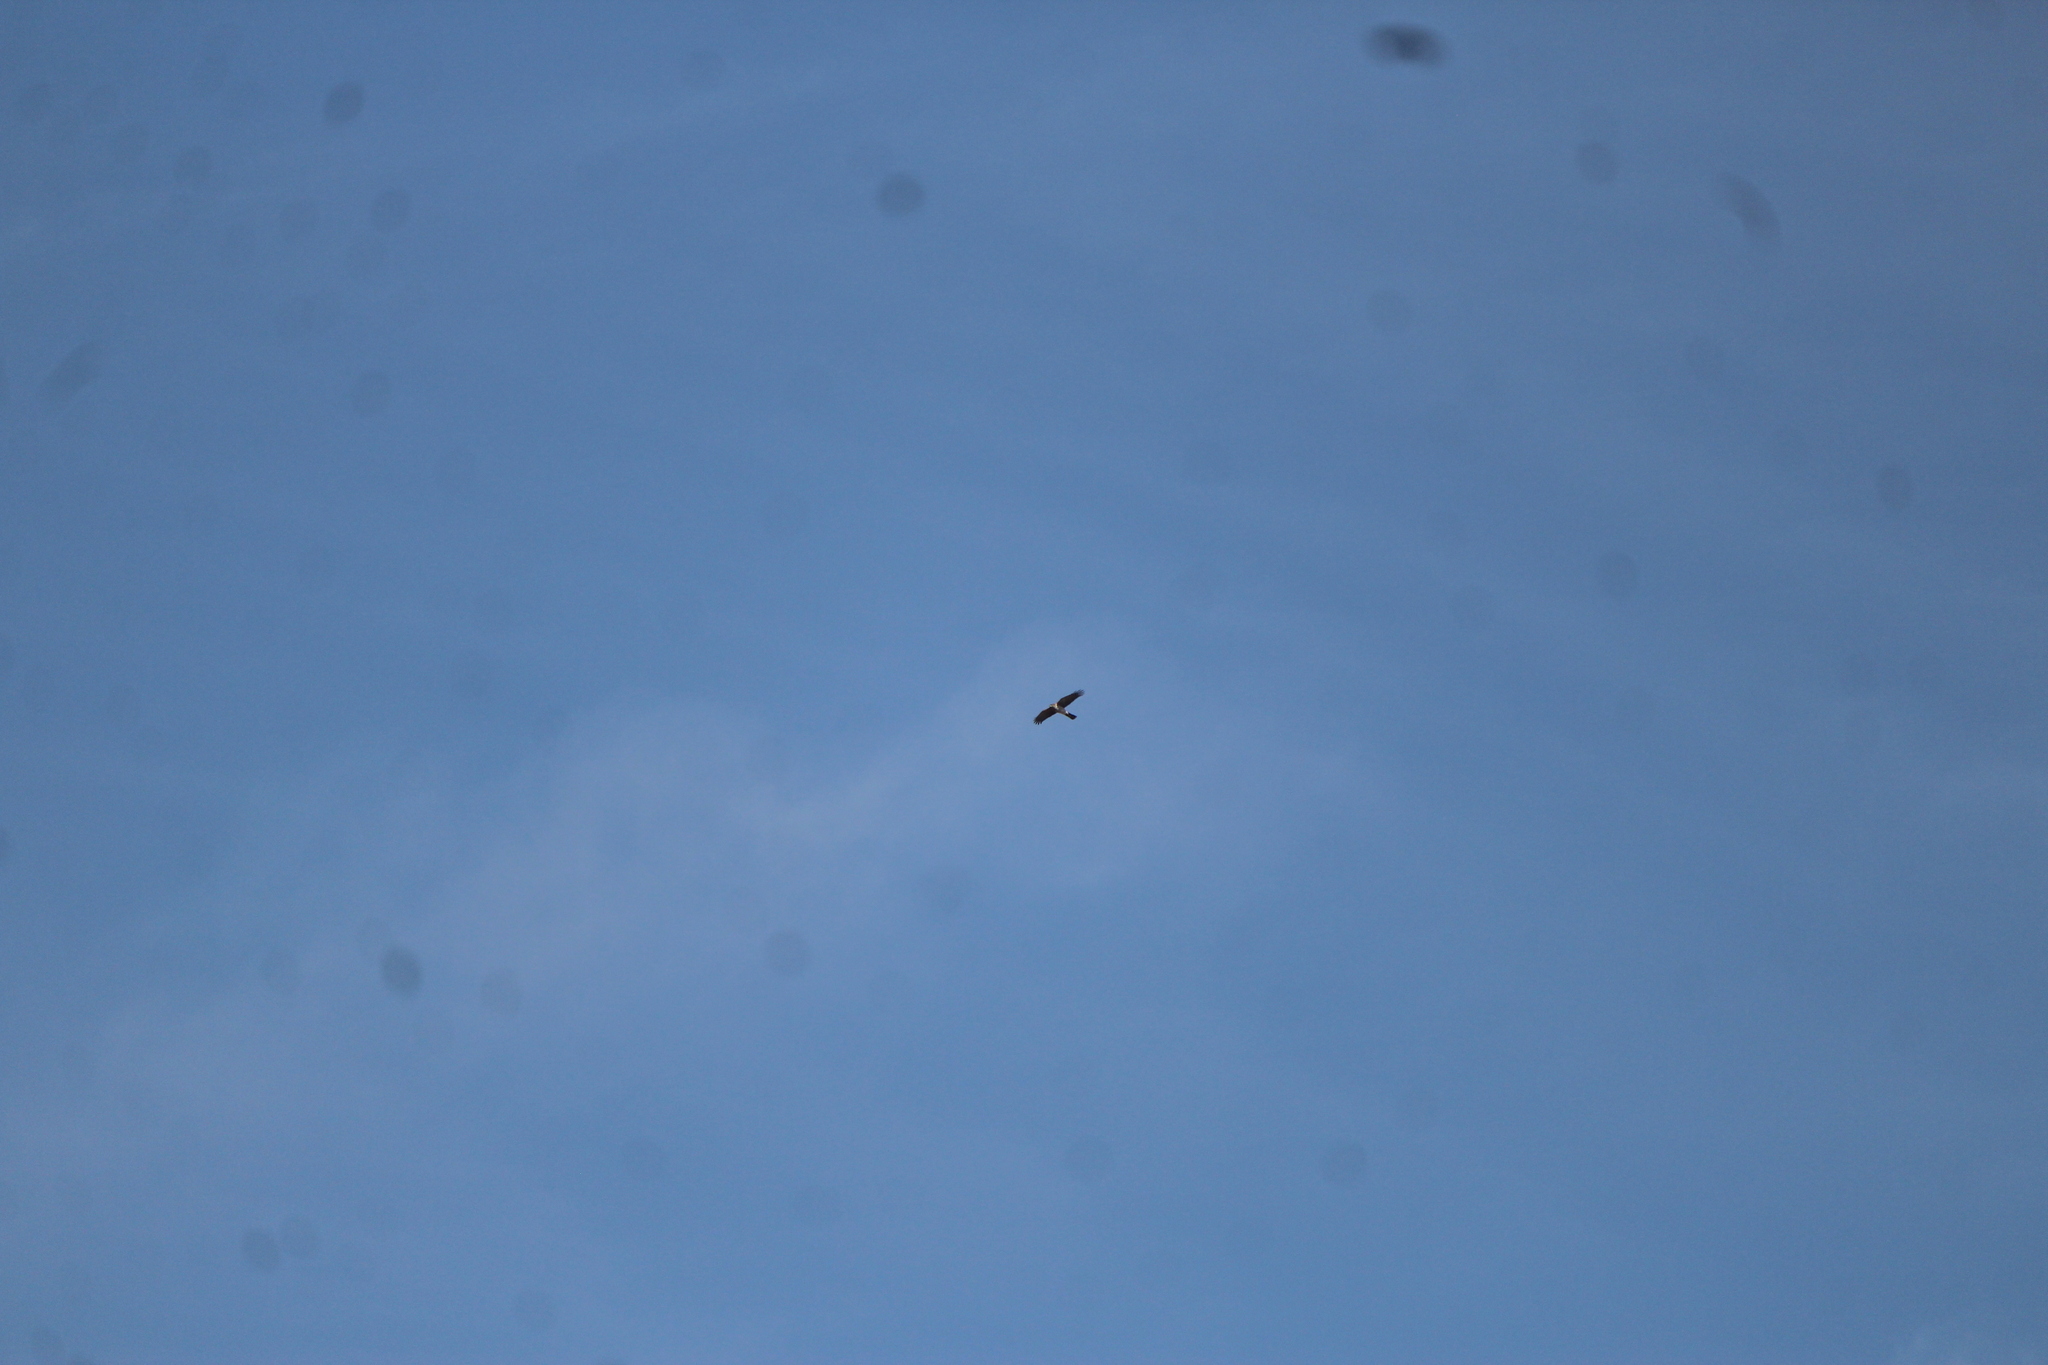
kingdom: Animalia
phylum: Chordata
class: Aves
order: Accipitriformes
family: Accipitridae
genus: Accipiter
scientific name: Accipiter cooperii
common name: Cooper's hawk
